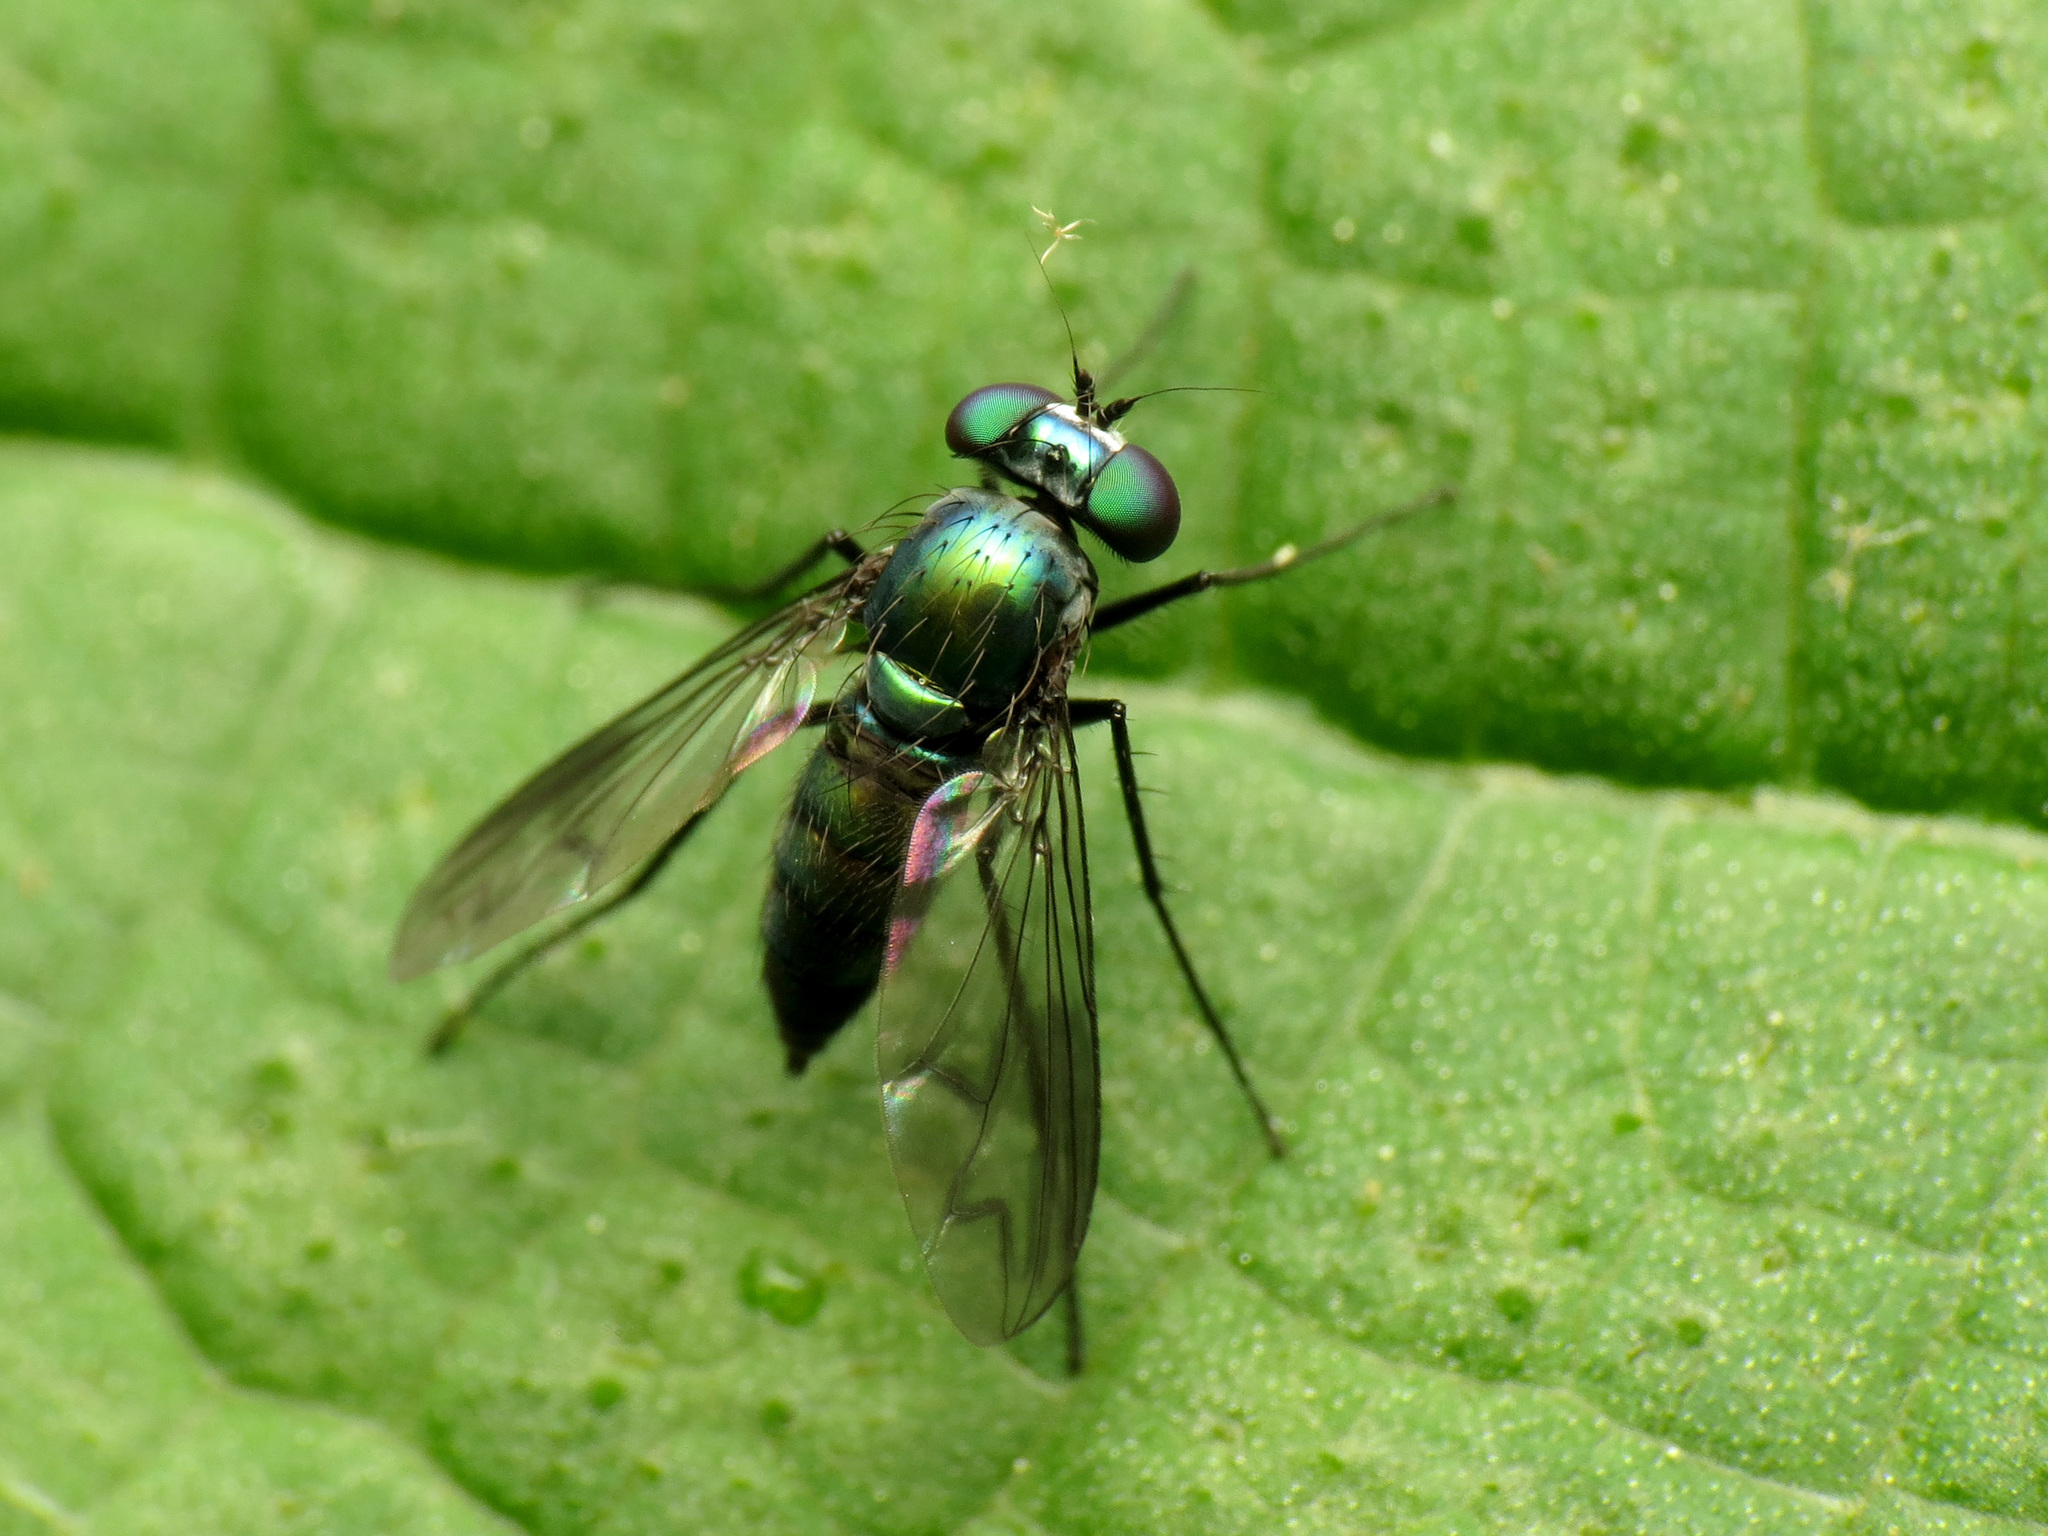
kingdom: Animalia
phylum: Arthropoda
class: Insecta
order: Diptera
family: Dolichopodidae
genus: Condylostylus
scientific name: Condylostylus patibulatus
